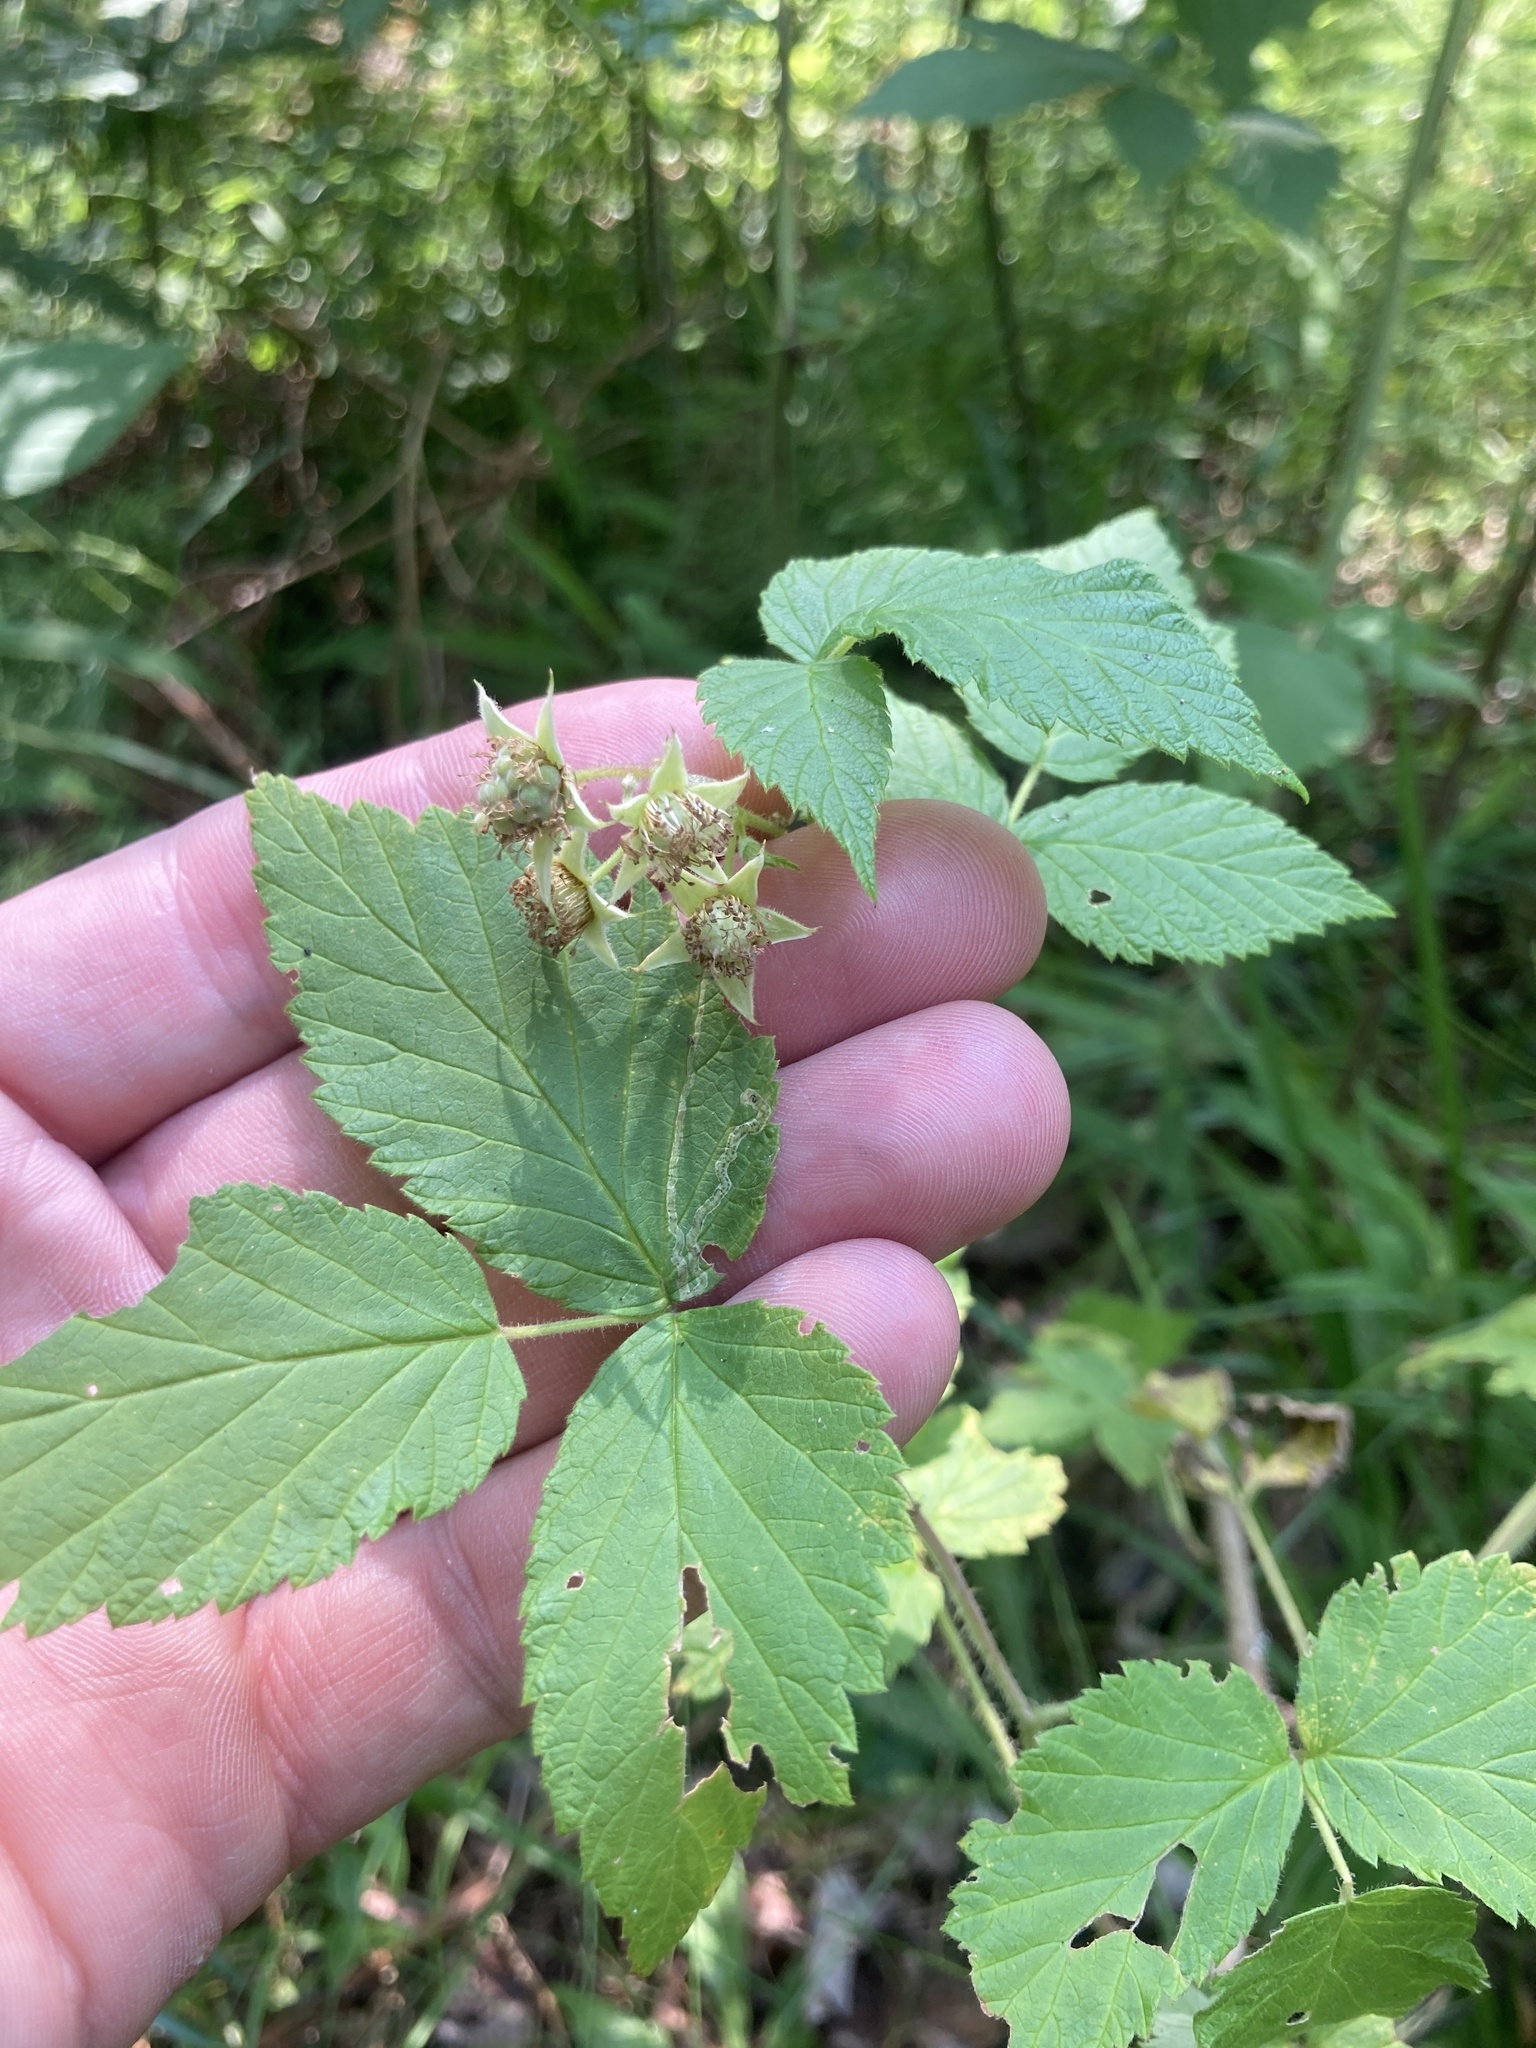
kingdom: Plantae
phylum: Tracheophyta
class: Magnoliopsida
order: Rosales
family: Rosaceae
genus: Rubus
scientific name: Rubus idaeus
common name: Raspberry
